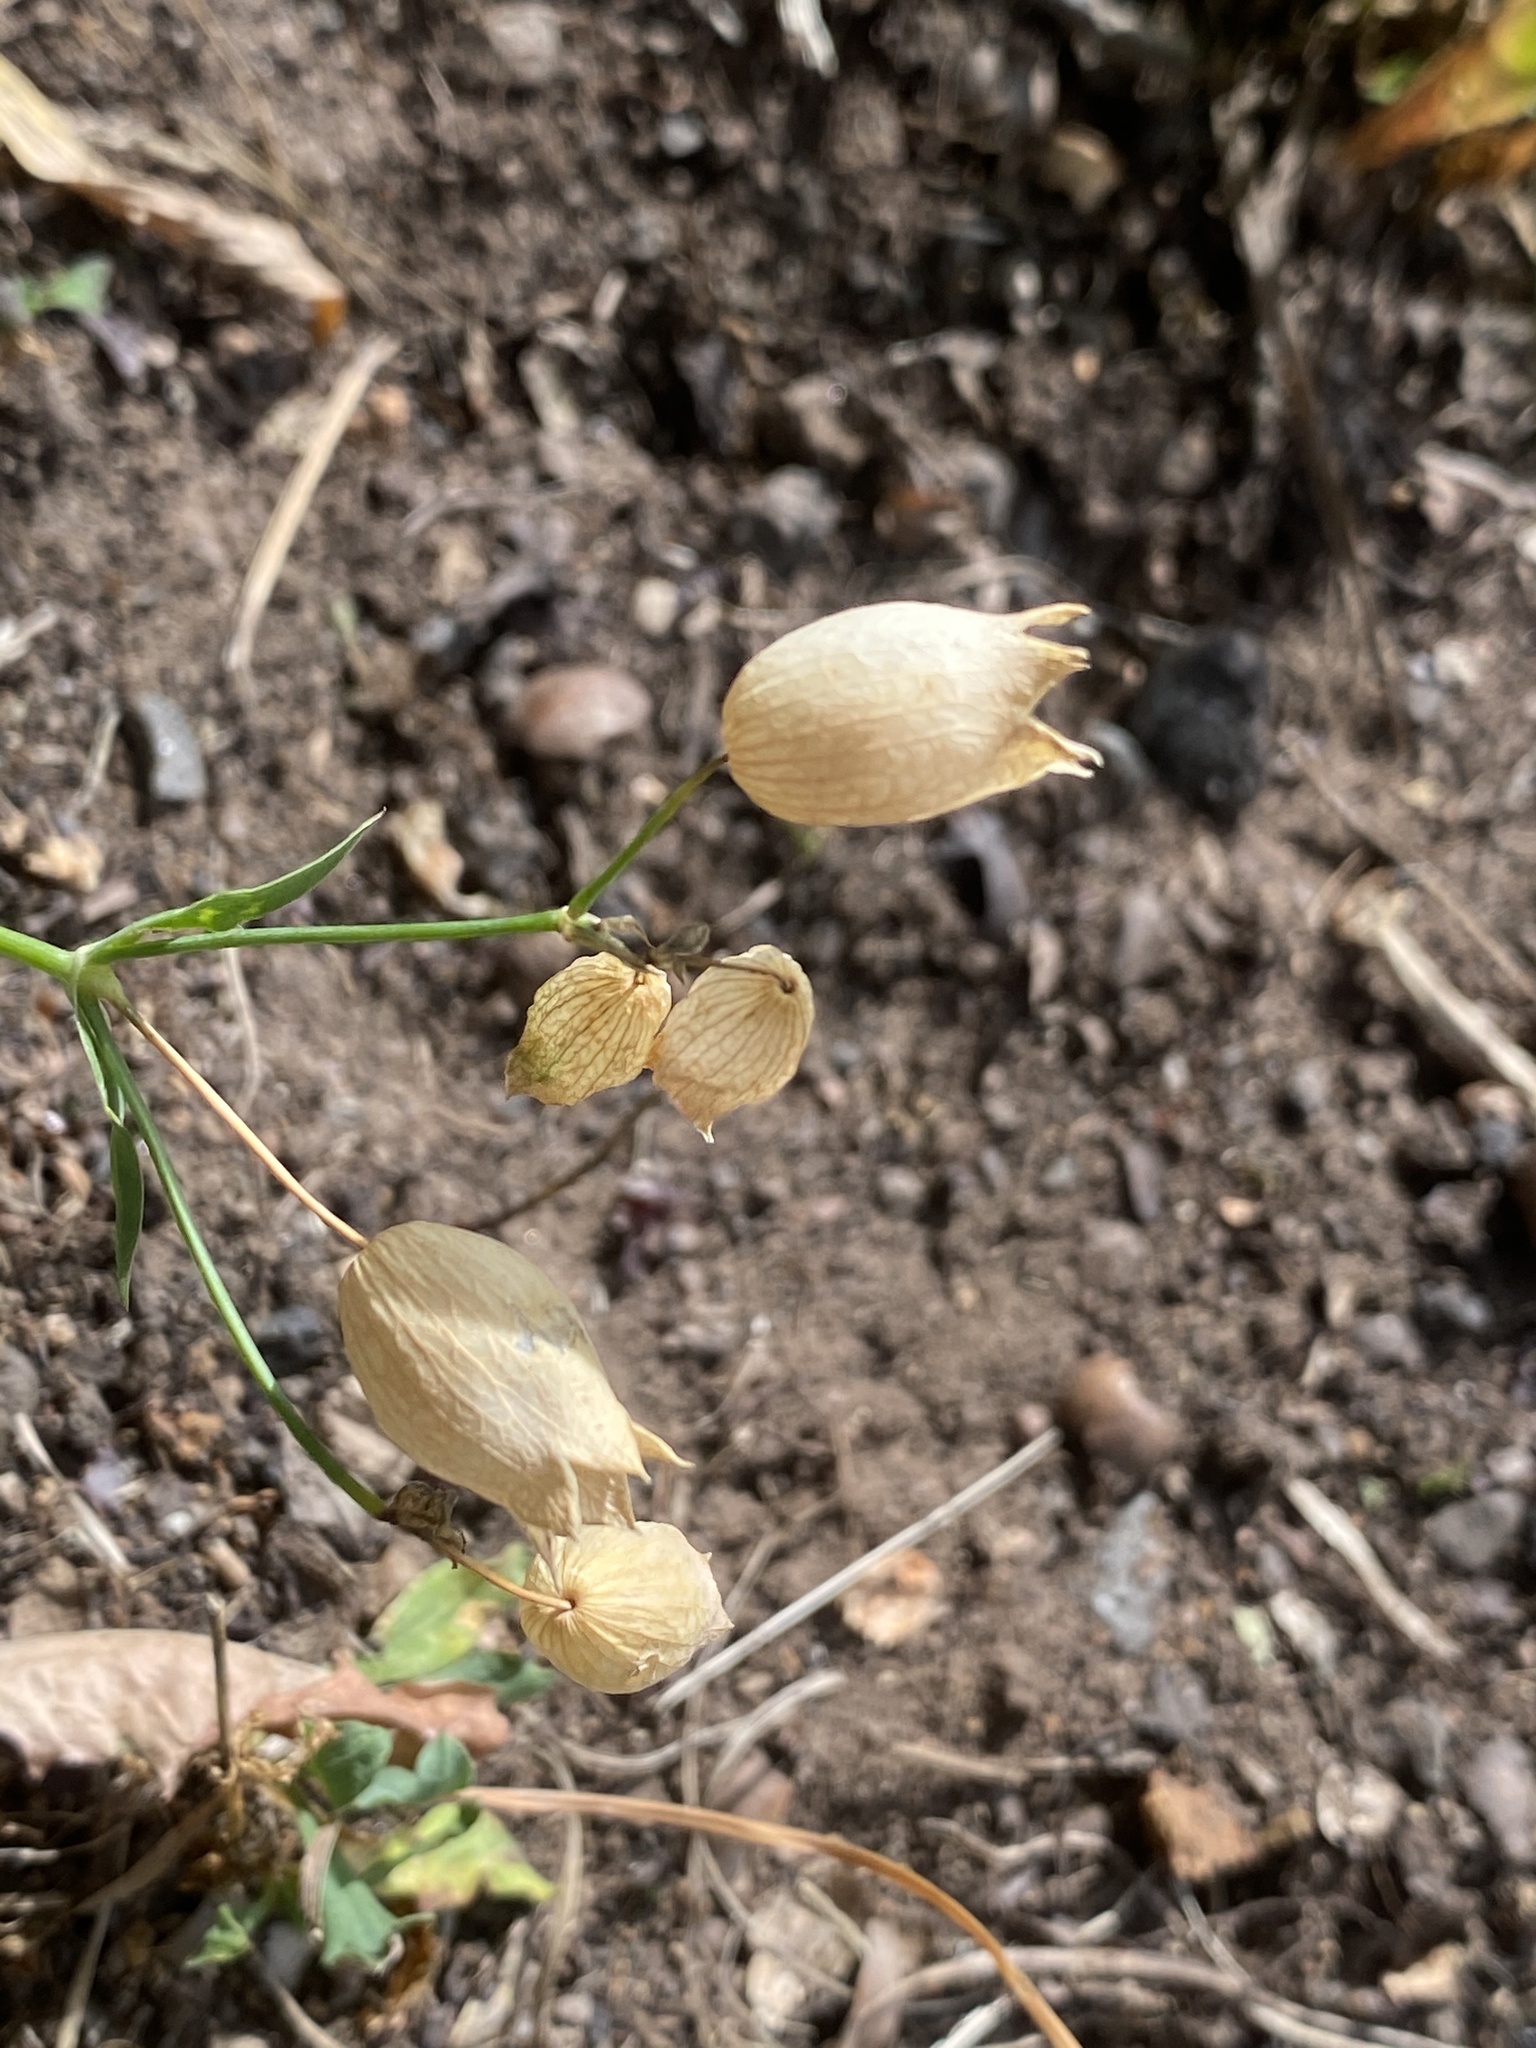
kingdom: Plantae
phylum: Tracheophyta
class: Magnoliopsida
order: Caryophyllales
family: Caryophyllaceae
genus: Silene
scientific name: Silene vulgaris
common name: Bladder campion
